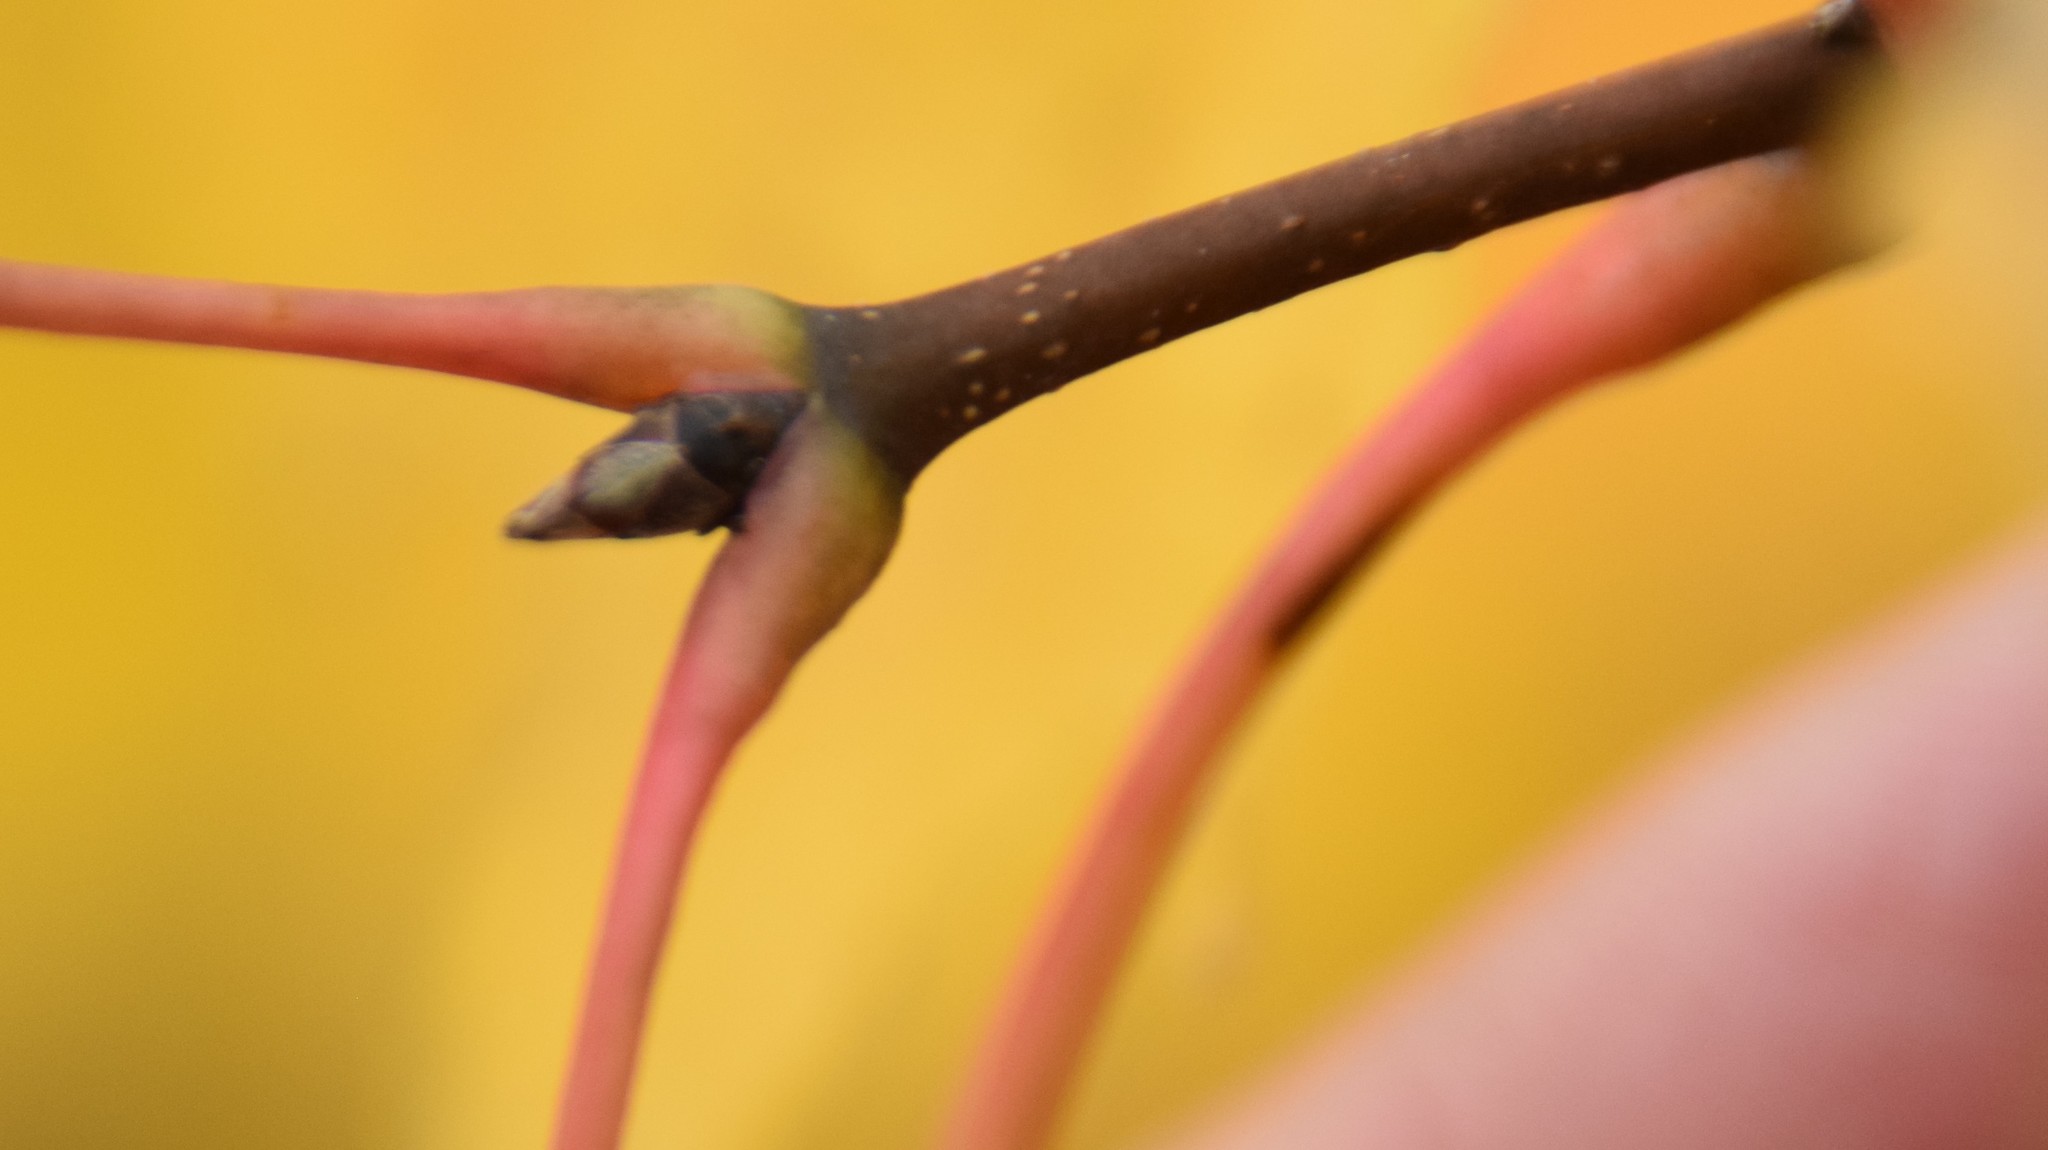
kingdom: Plantae
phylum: Tracheophyta
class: Magnoliopsida
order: Sapindales
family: Sapindaceae
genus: Acer
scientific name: Acer saccharum
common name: Sugar maple
